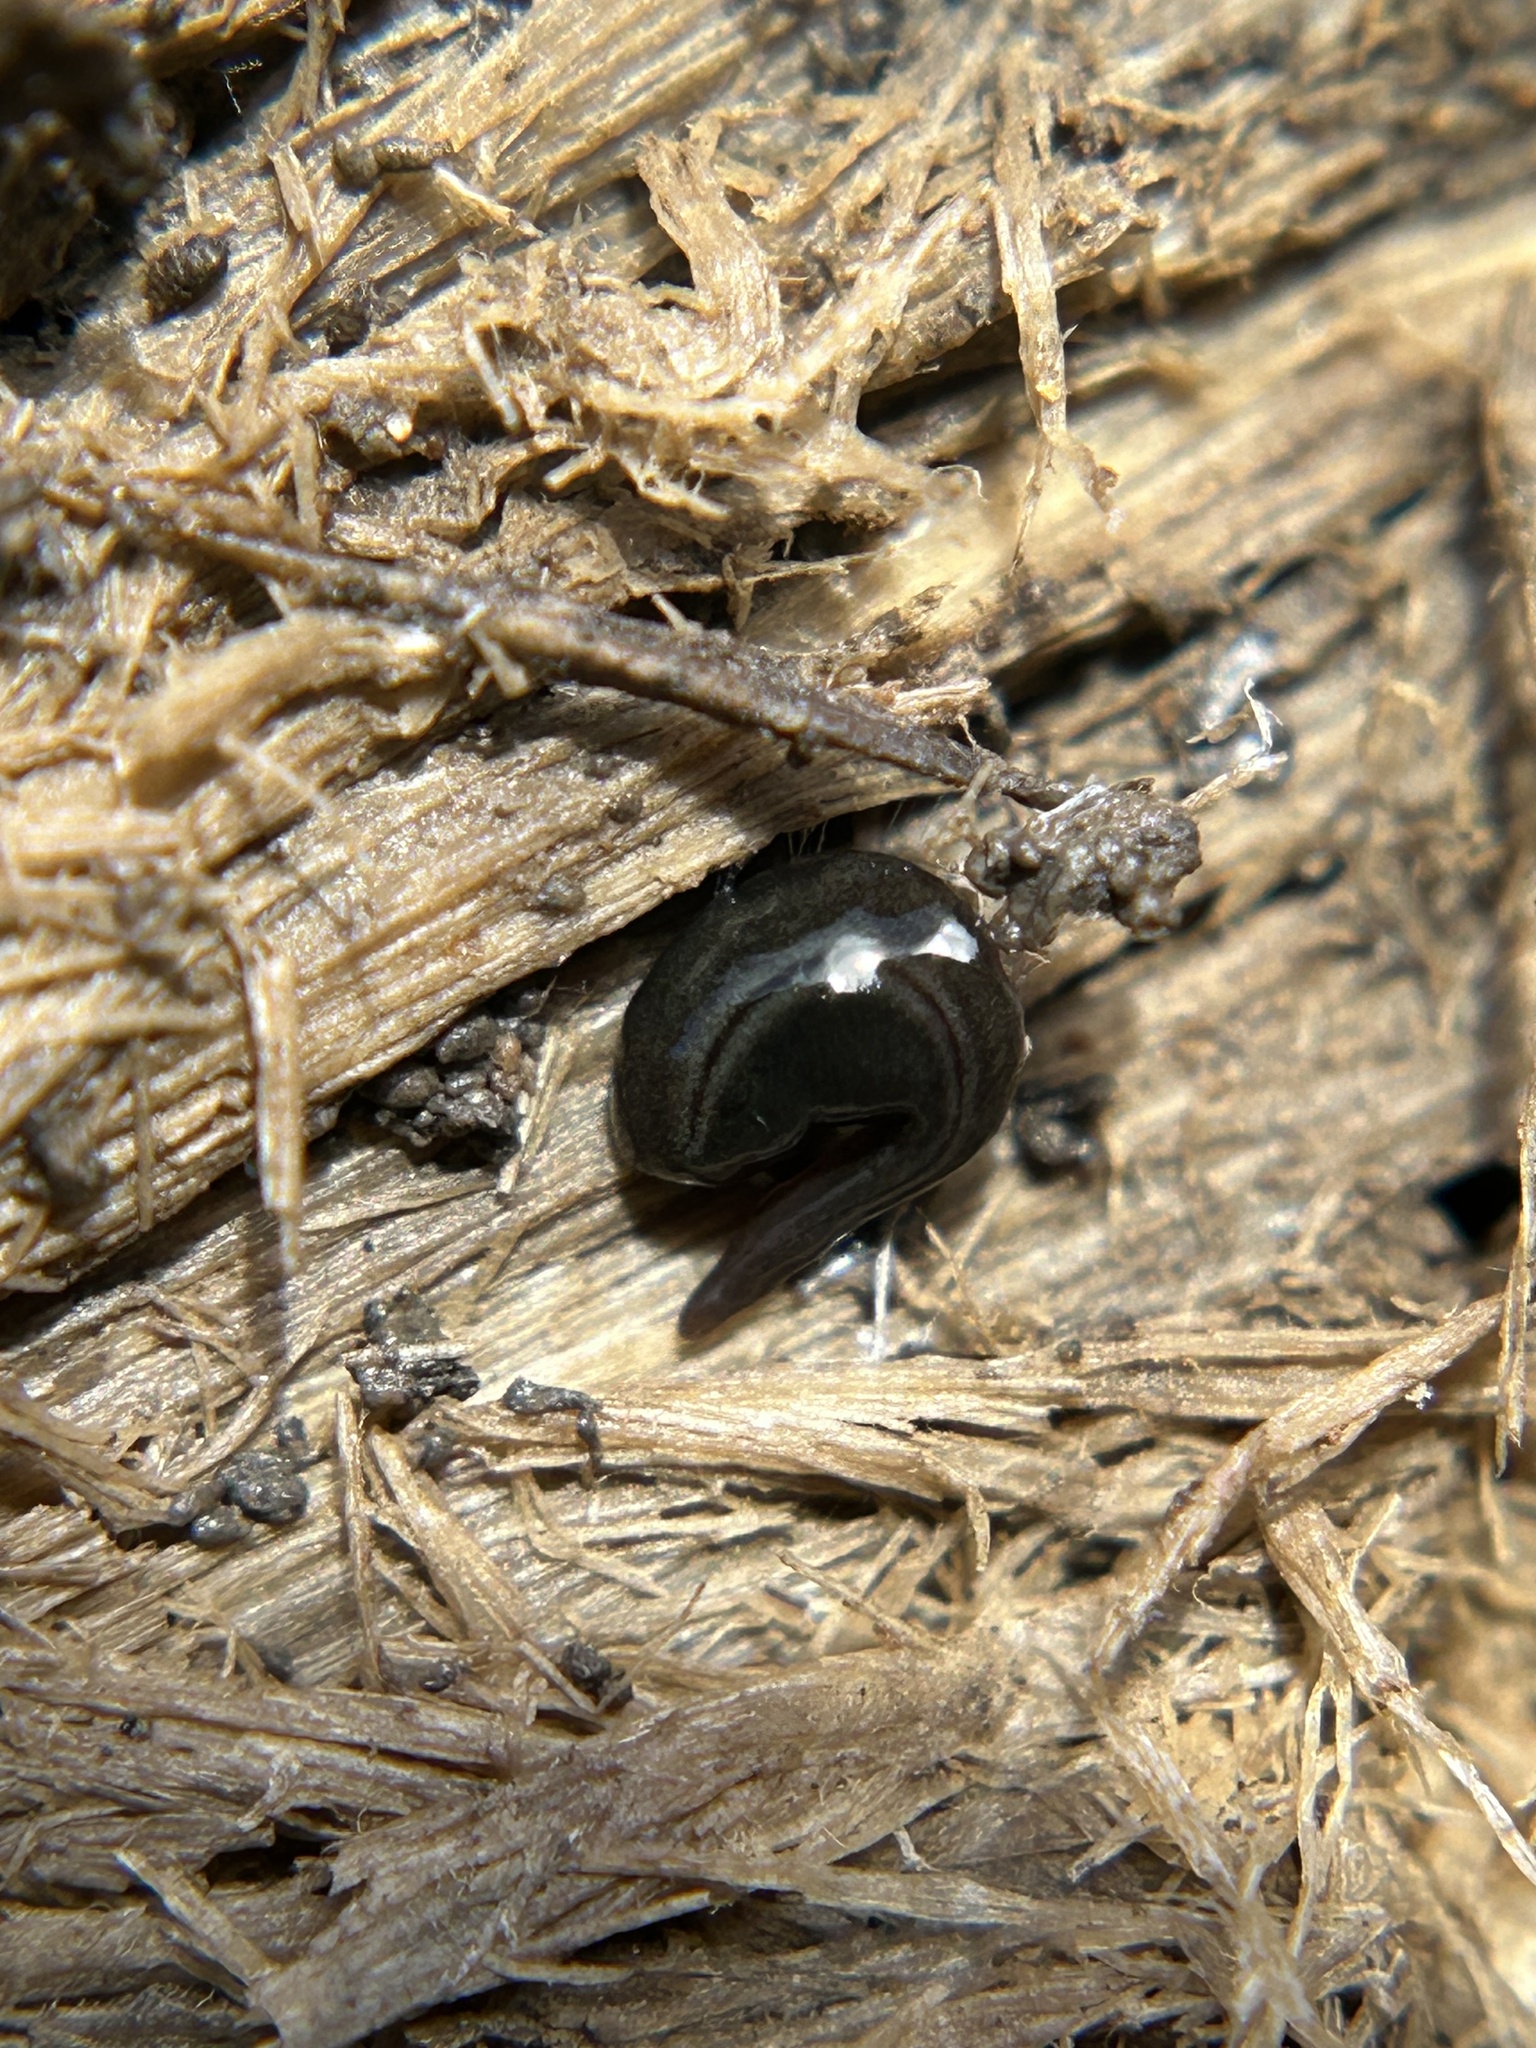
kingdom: Animalia
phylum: Platyhelminthes
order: Tricladida
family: Geoplanidae
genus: Parakontikia
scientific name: Parakontikia ventrolineata
